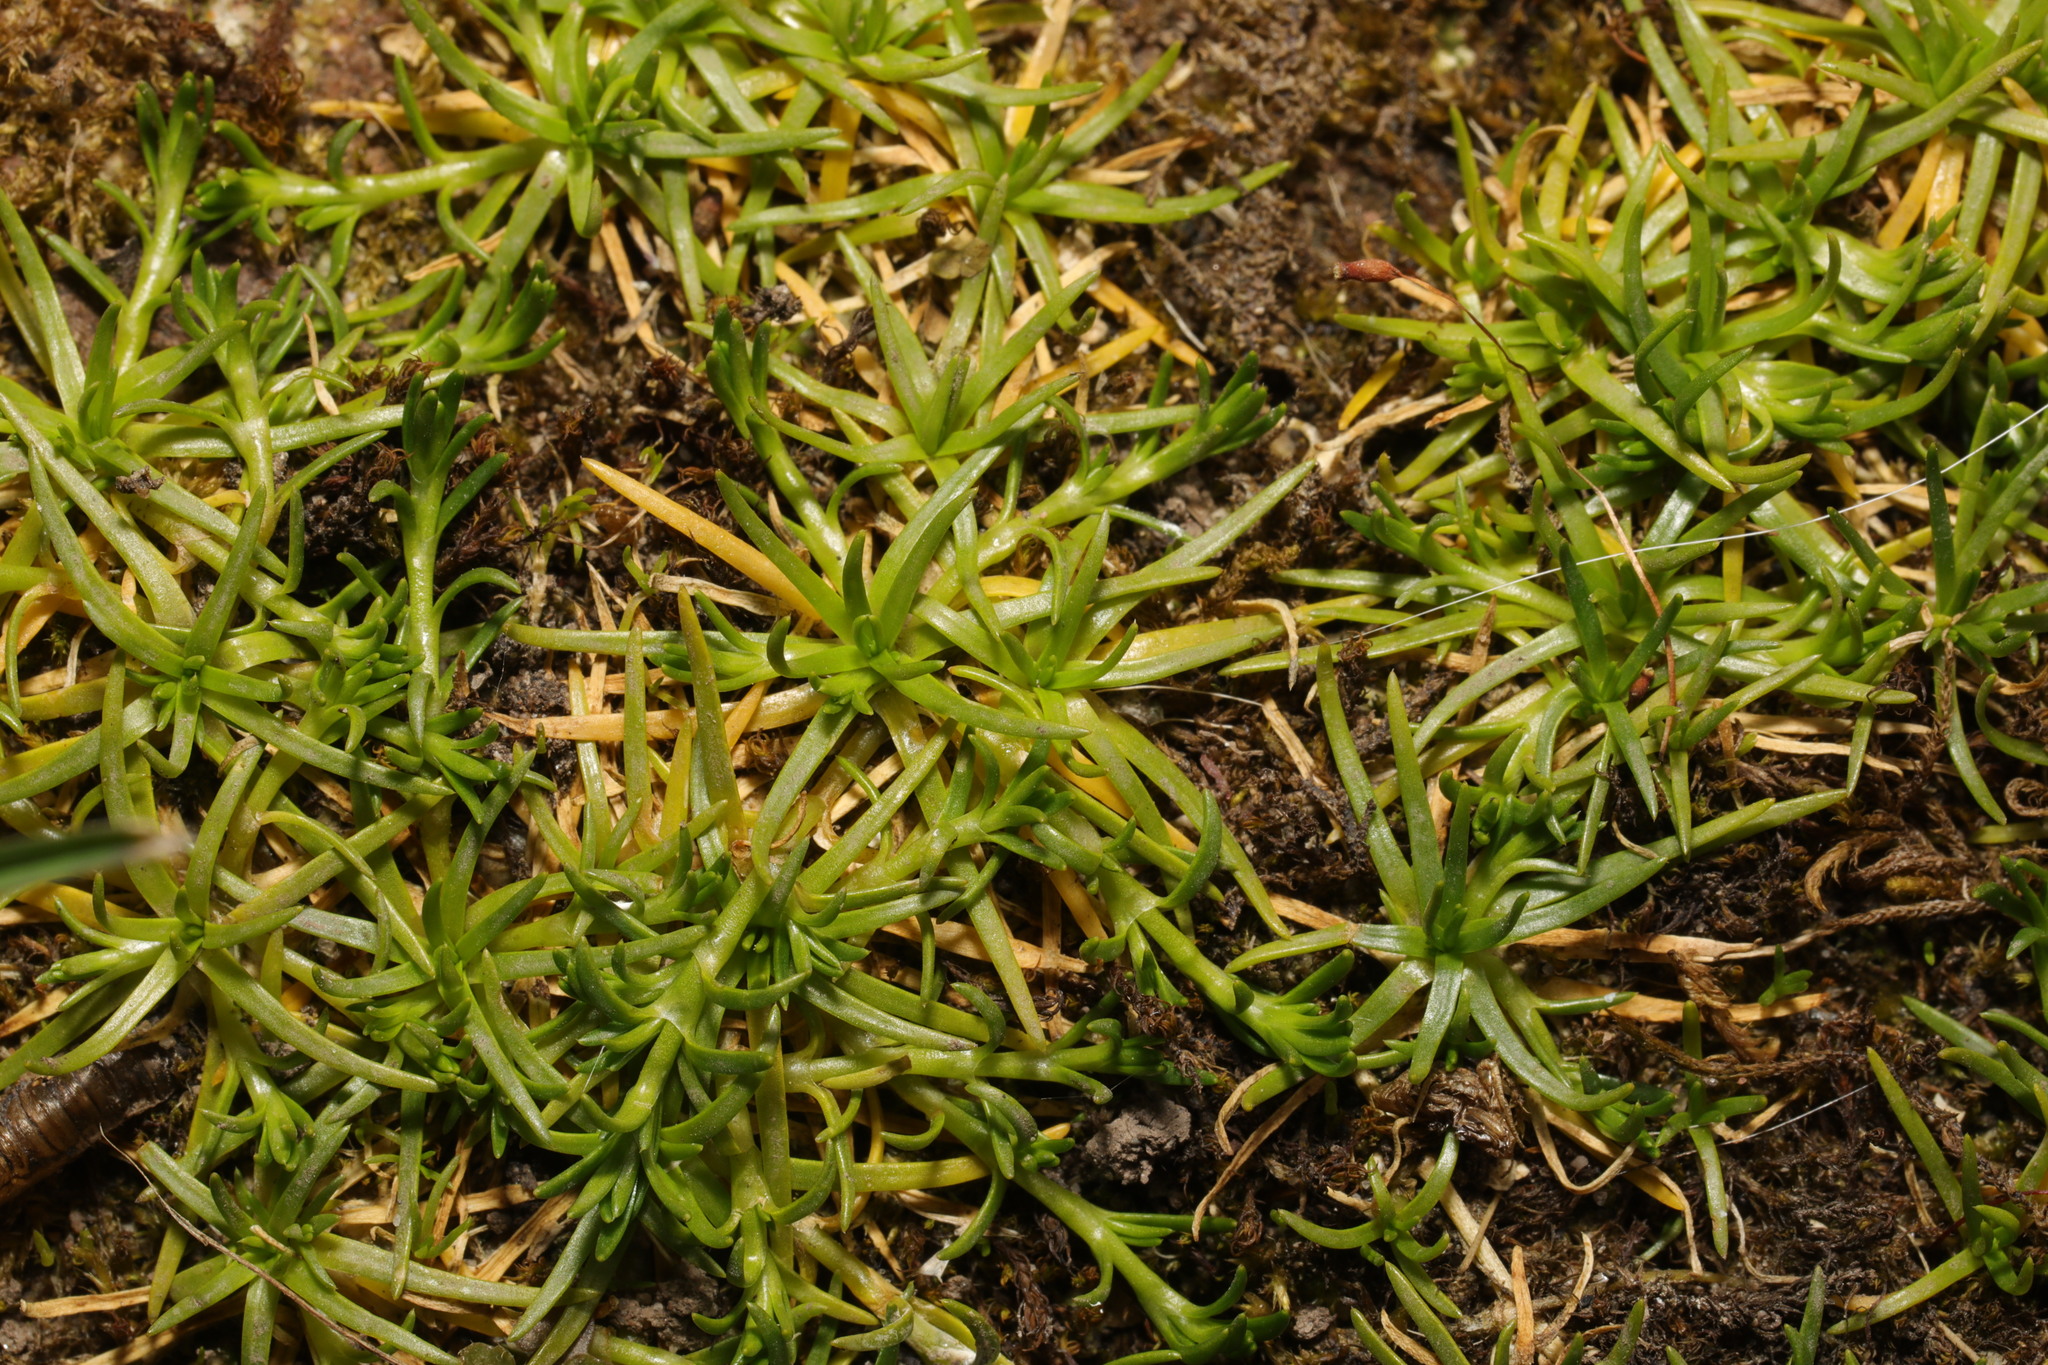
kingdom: Plantae
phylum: Tracheophyta
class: Magnoliopsida
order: Caryophyllales
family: Caryophyllaceae
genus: Sagina
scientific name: Sagina procumbens
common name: Procumbent pearlwort
